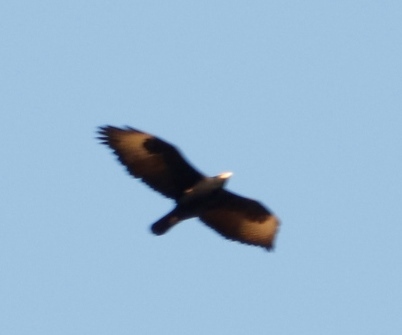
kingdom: Animalia
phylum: Chordata
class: Aves
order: Accipitriformes
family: Accipitridae
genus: Aquila
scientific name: Aquila verreauxii
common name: Verreaux's eagle
